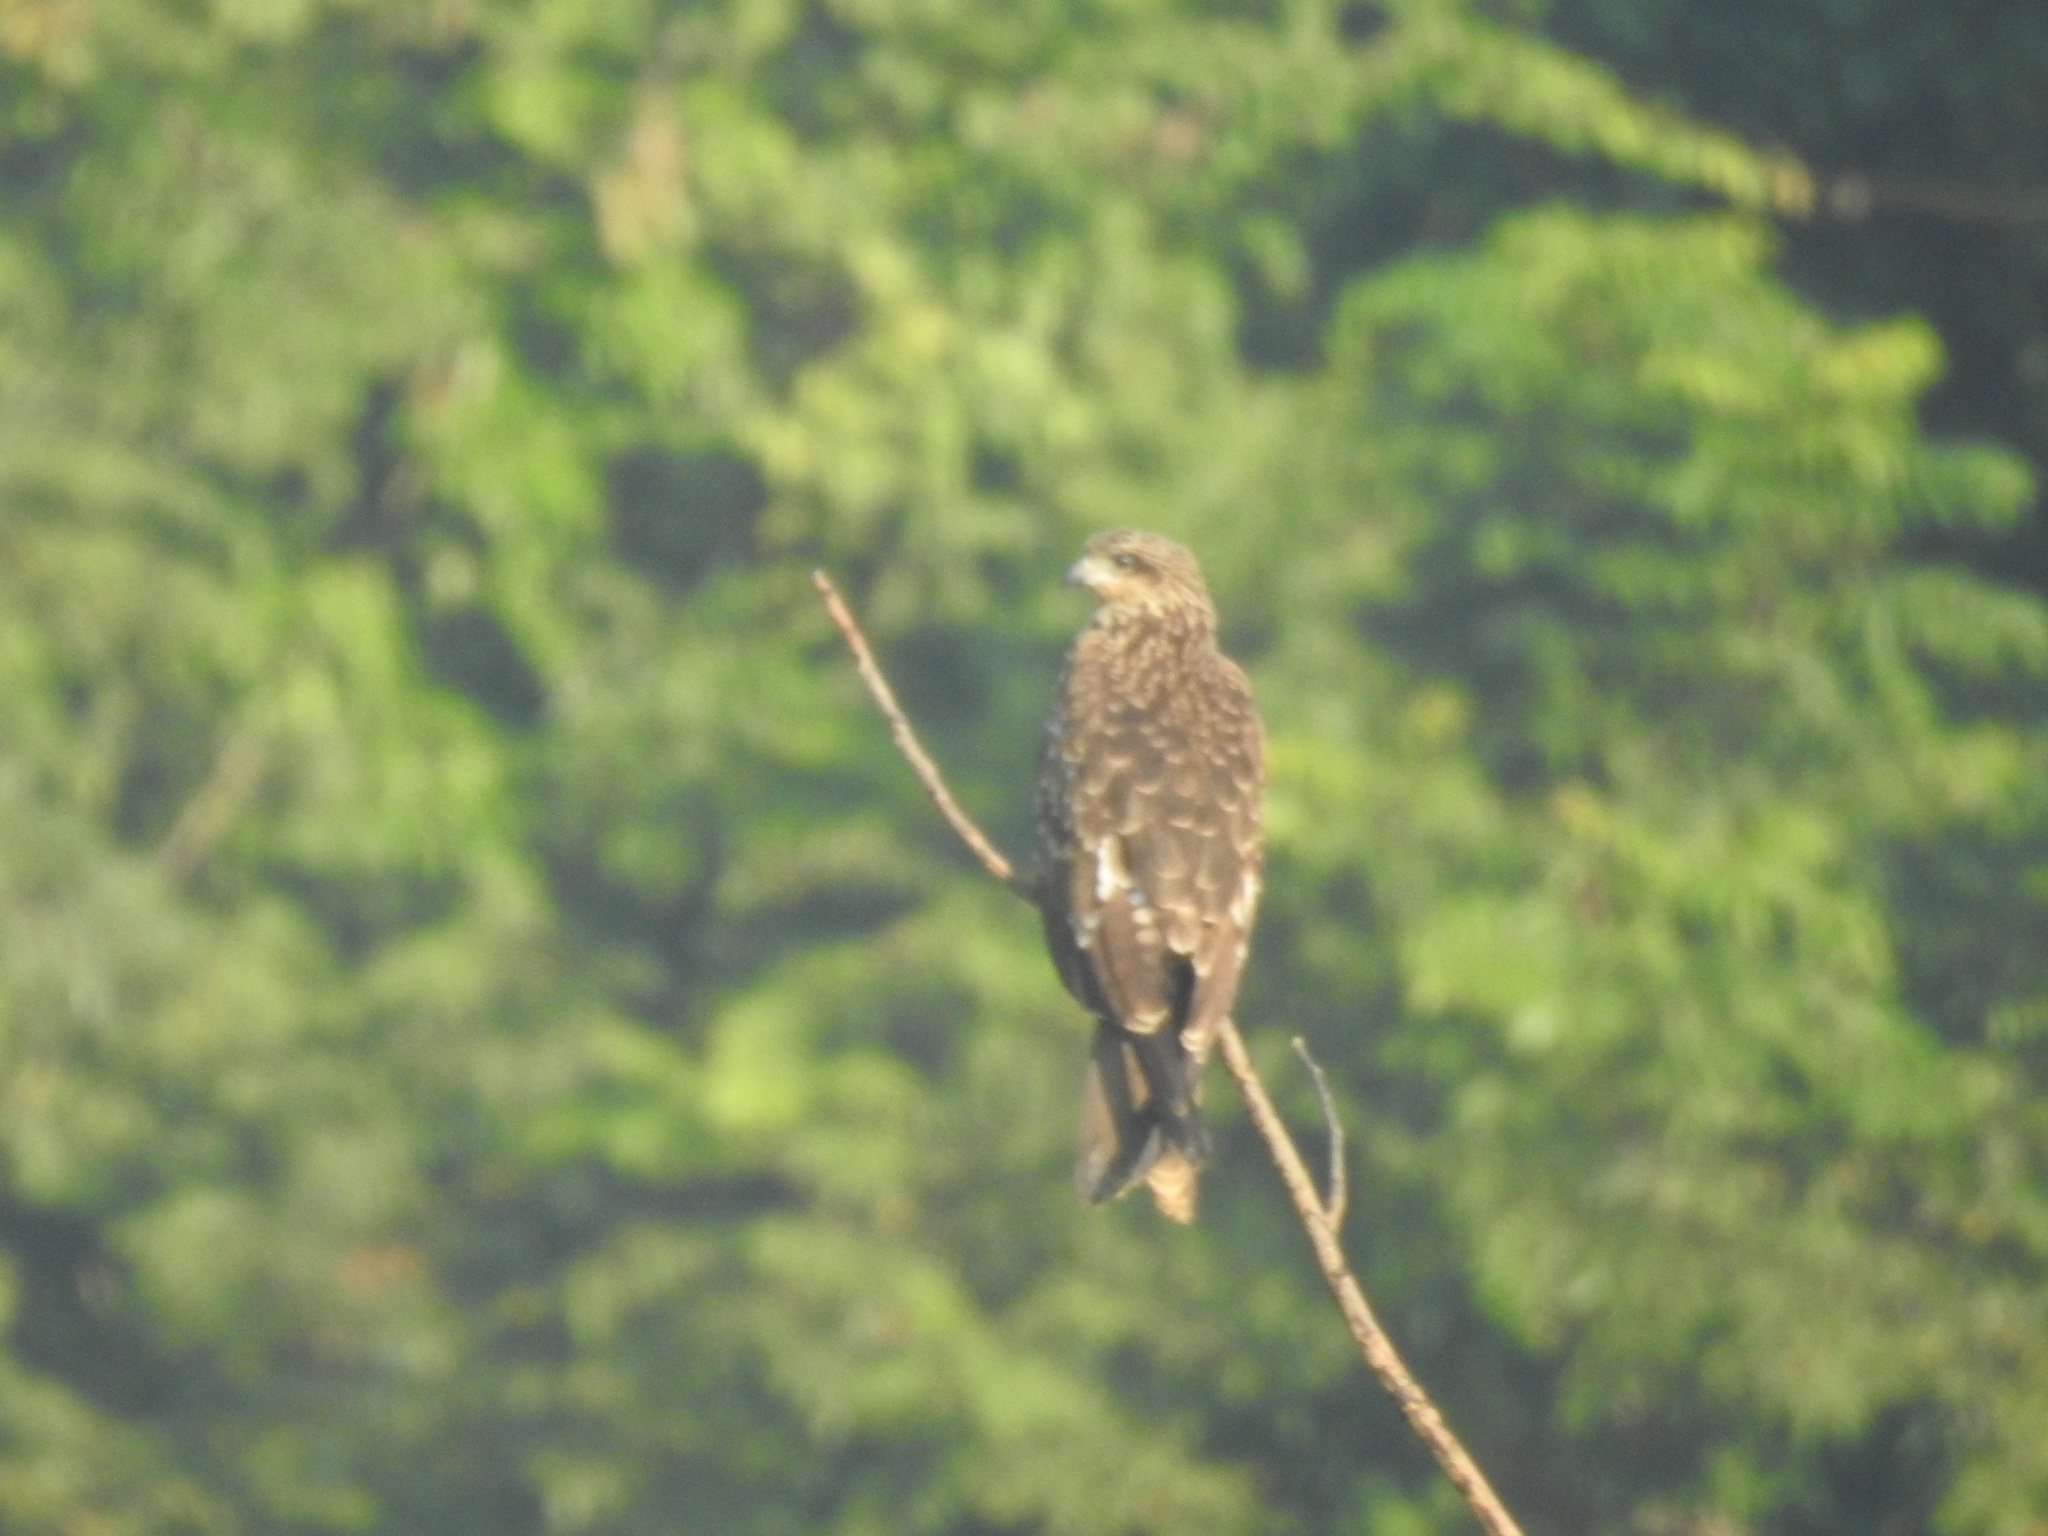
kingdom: Animalia
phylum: Chordata
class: Aves
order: Accipitriformes
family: Accipitridae
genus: Milvus
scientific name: Milvus migrans
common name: Black kite
